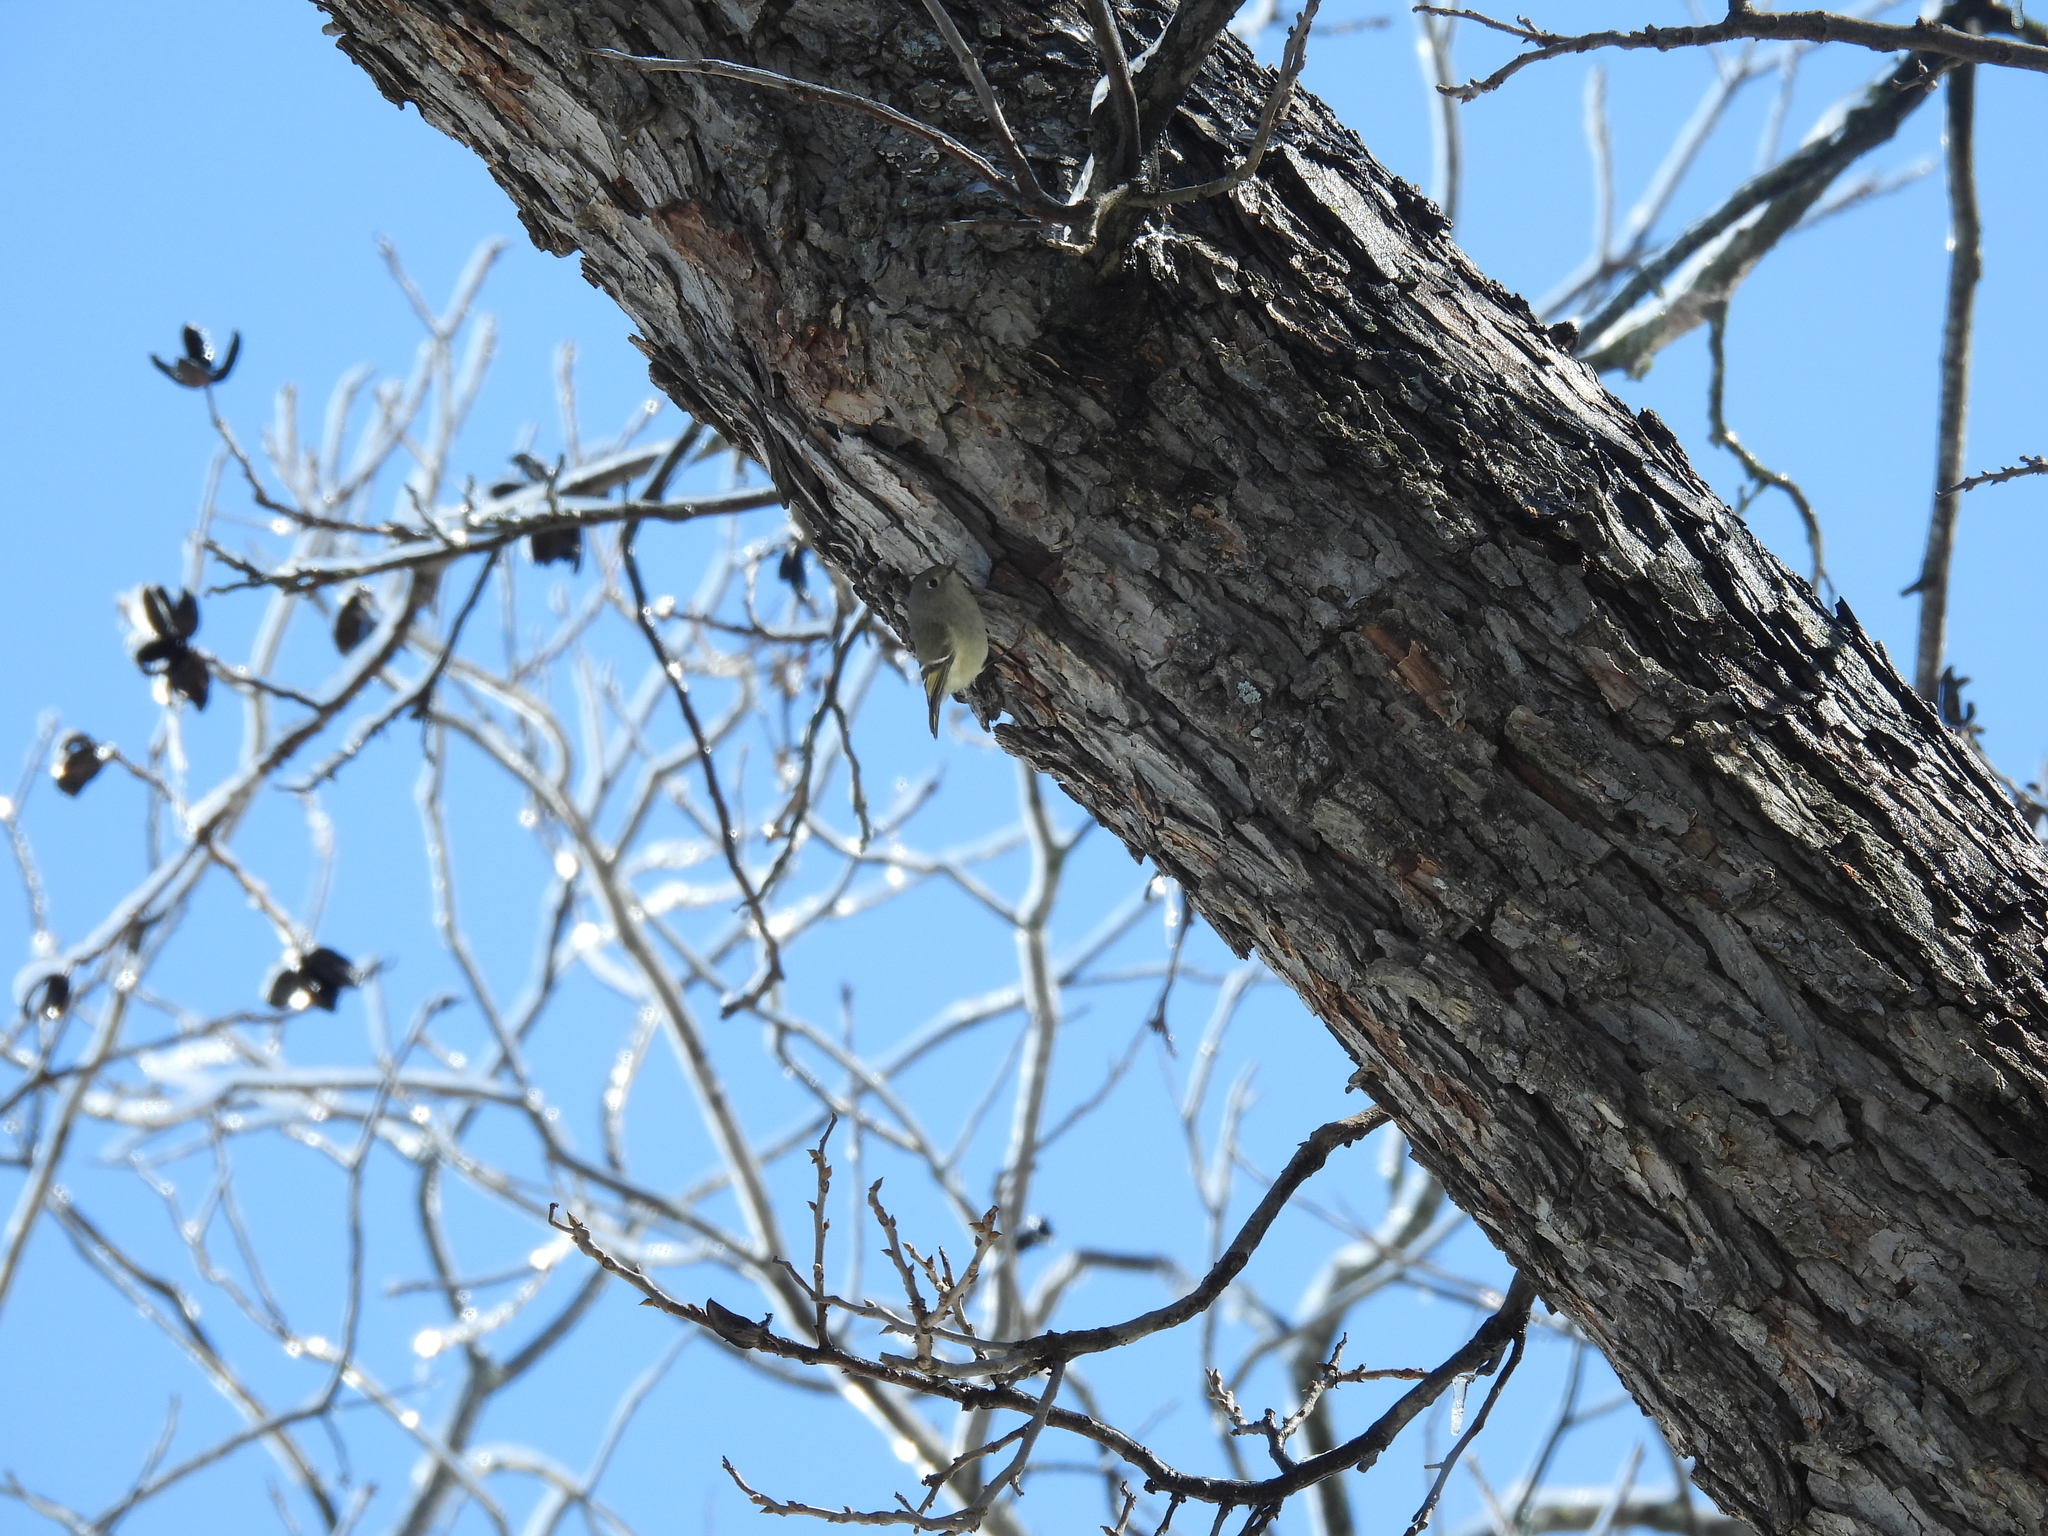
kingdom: Animalia
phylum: Chordata
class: Aves
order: Passeriformes
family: Regulidae
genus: Regulus
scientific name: Regulus calendula
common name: Ruby-crowned kinglet
